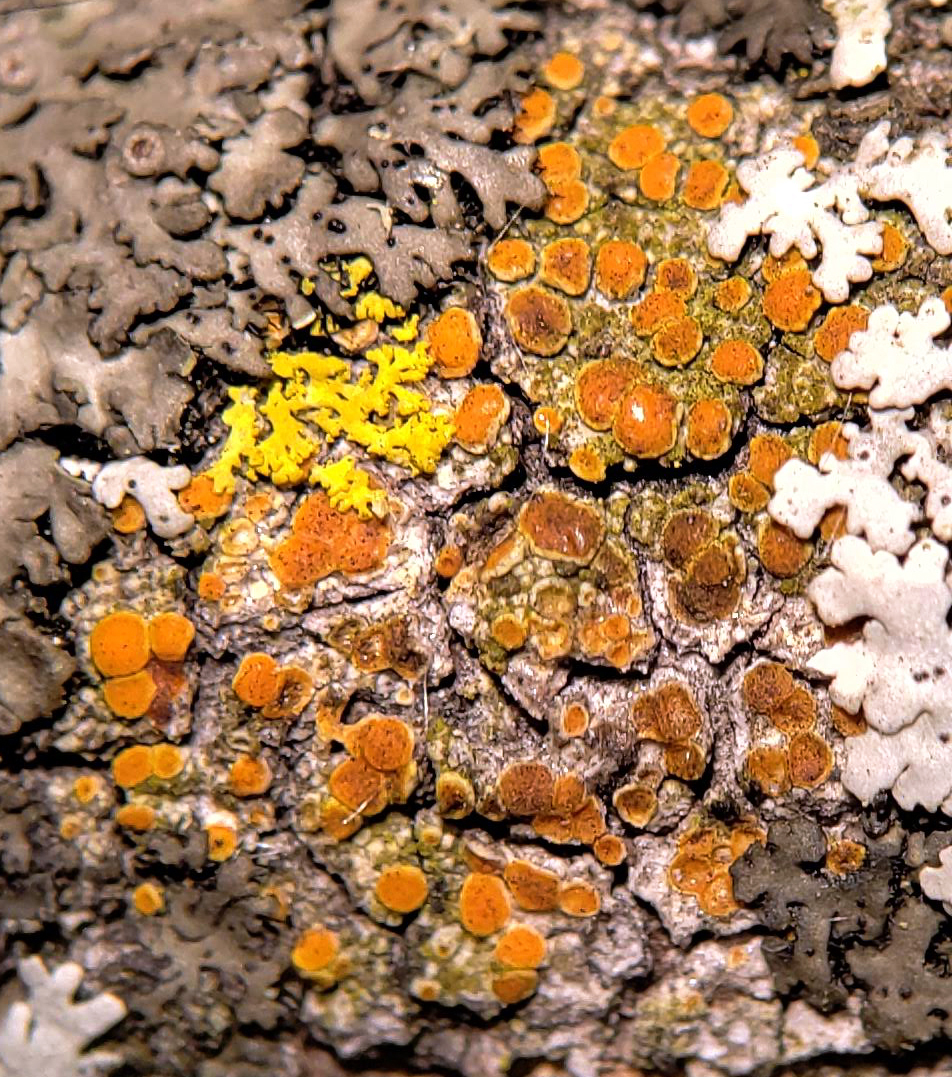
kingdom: Fungi
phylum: Ascomycota
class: Lecanoromycetes
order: Teloschistales
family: Teloschistaceae
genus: Opeltia
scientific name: Opeltia flavorubescens
